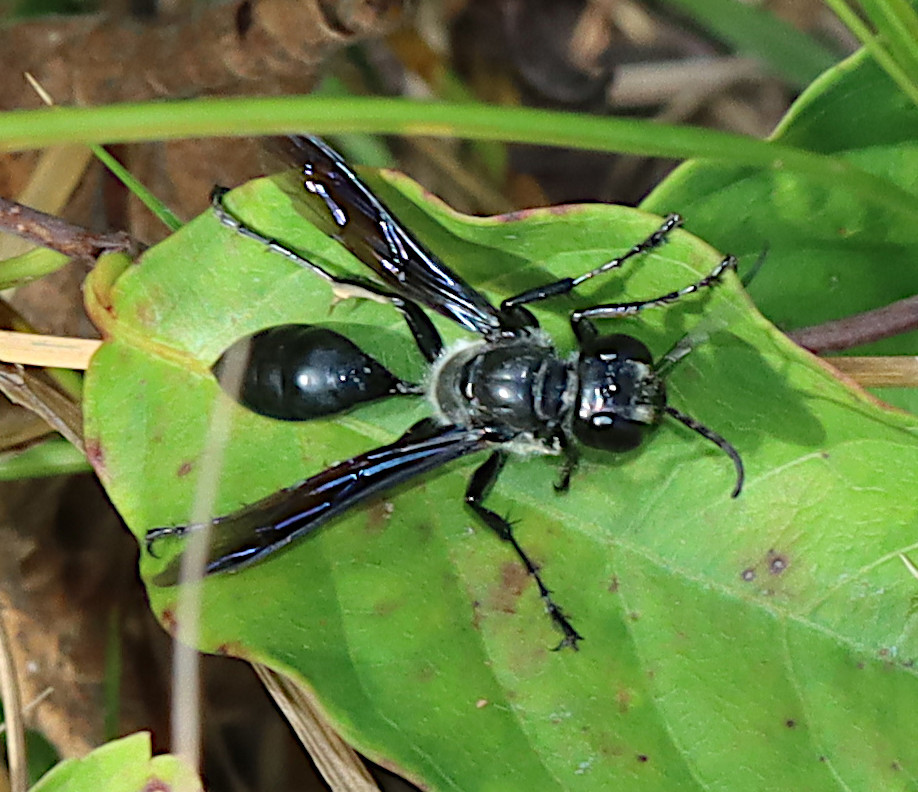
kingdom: Animalia
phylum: Arthropoda
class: Insecta
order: Hymenoptera
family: Sphecidae
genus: Isodontia
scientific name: Isodontia apicalis
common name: Mud dauber
